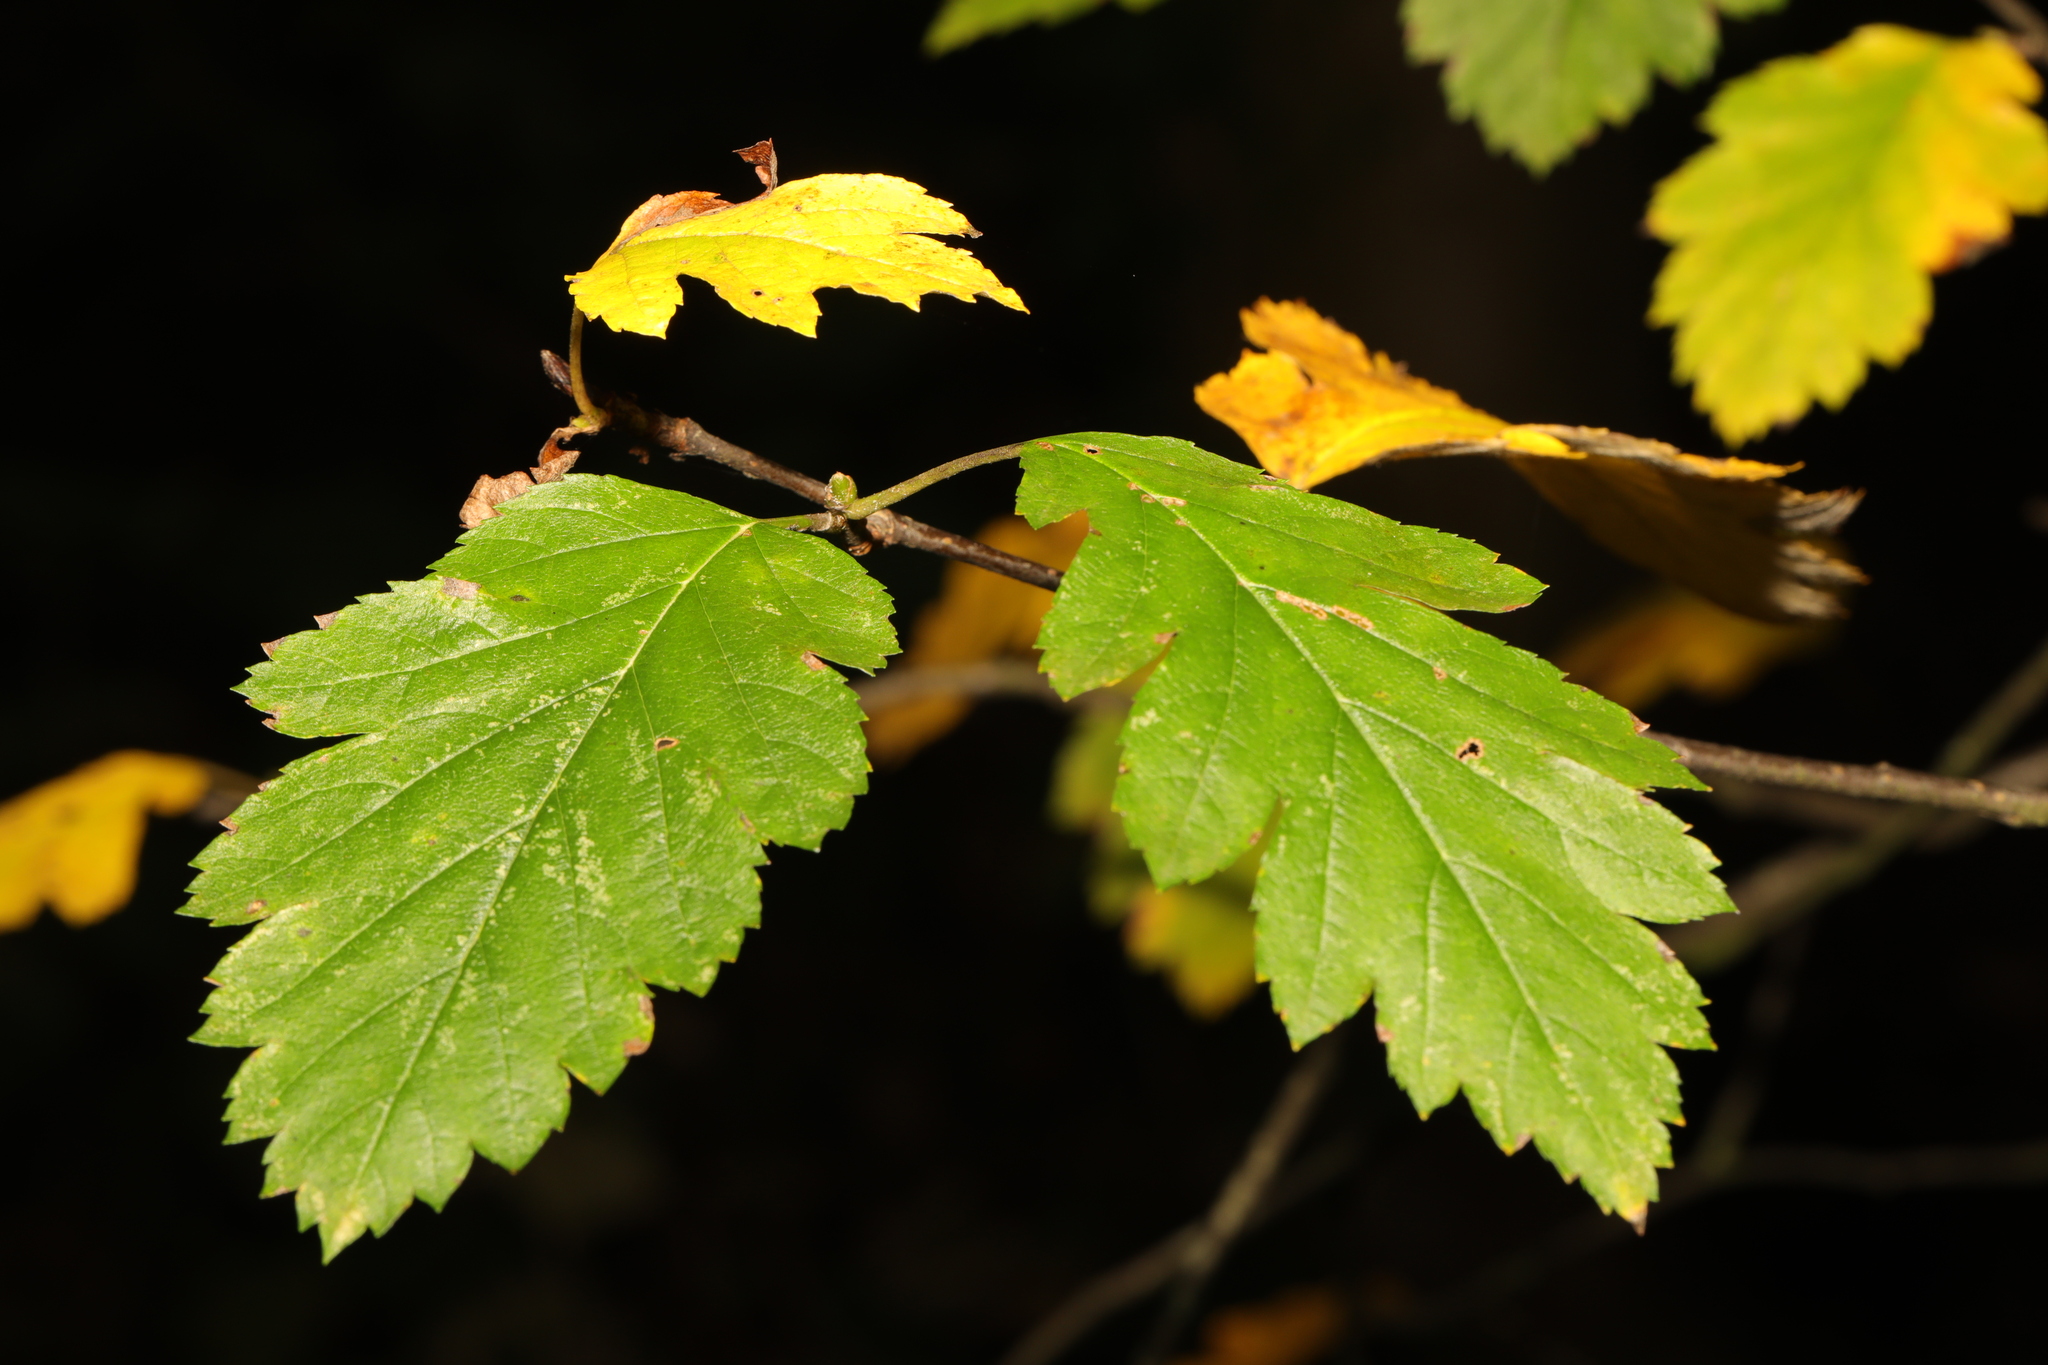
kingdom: Plantae
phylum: Tracheophyta
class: Magnoliopsida
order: Rosales
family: Rosaceae
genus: Scandosorbus
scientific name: Scandosorbus intermedia
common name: Swedish whitebeam
